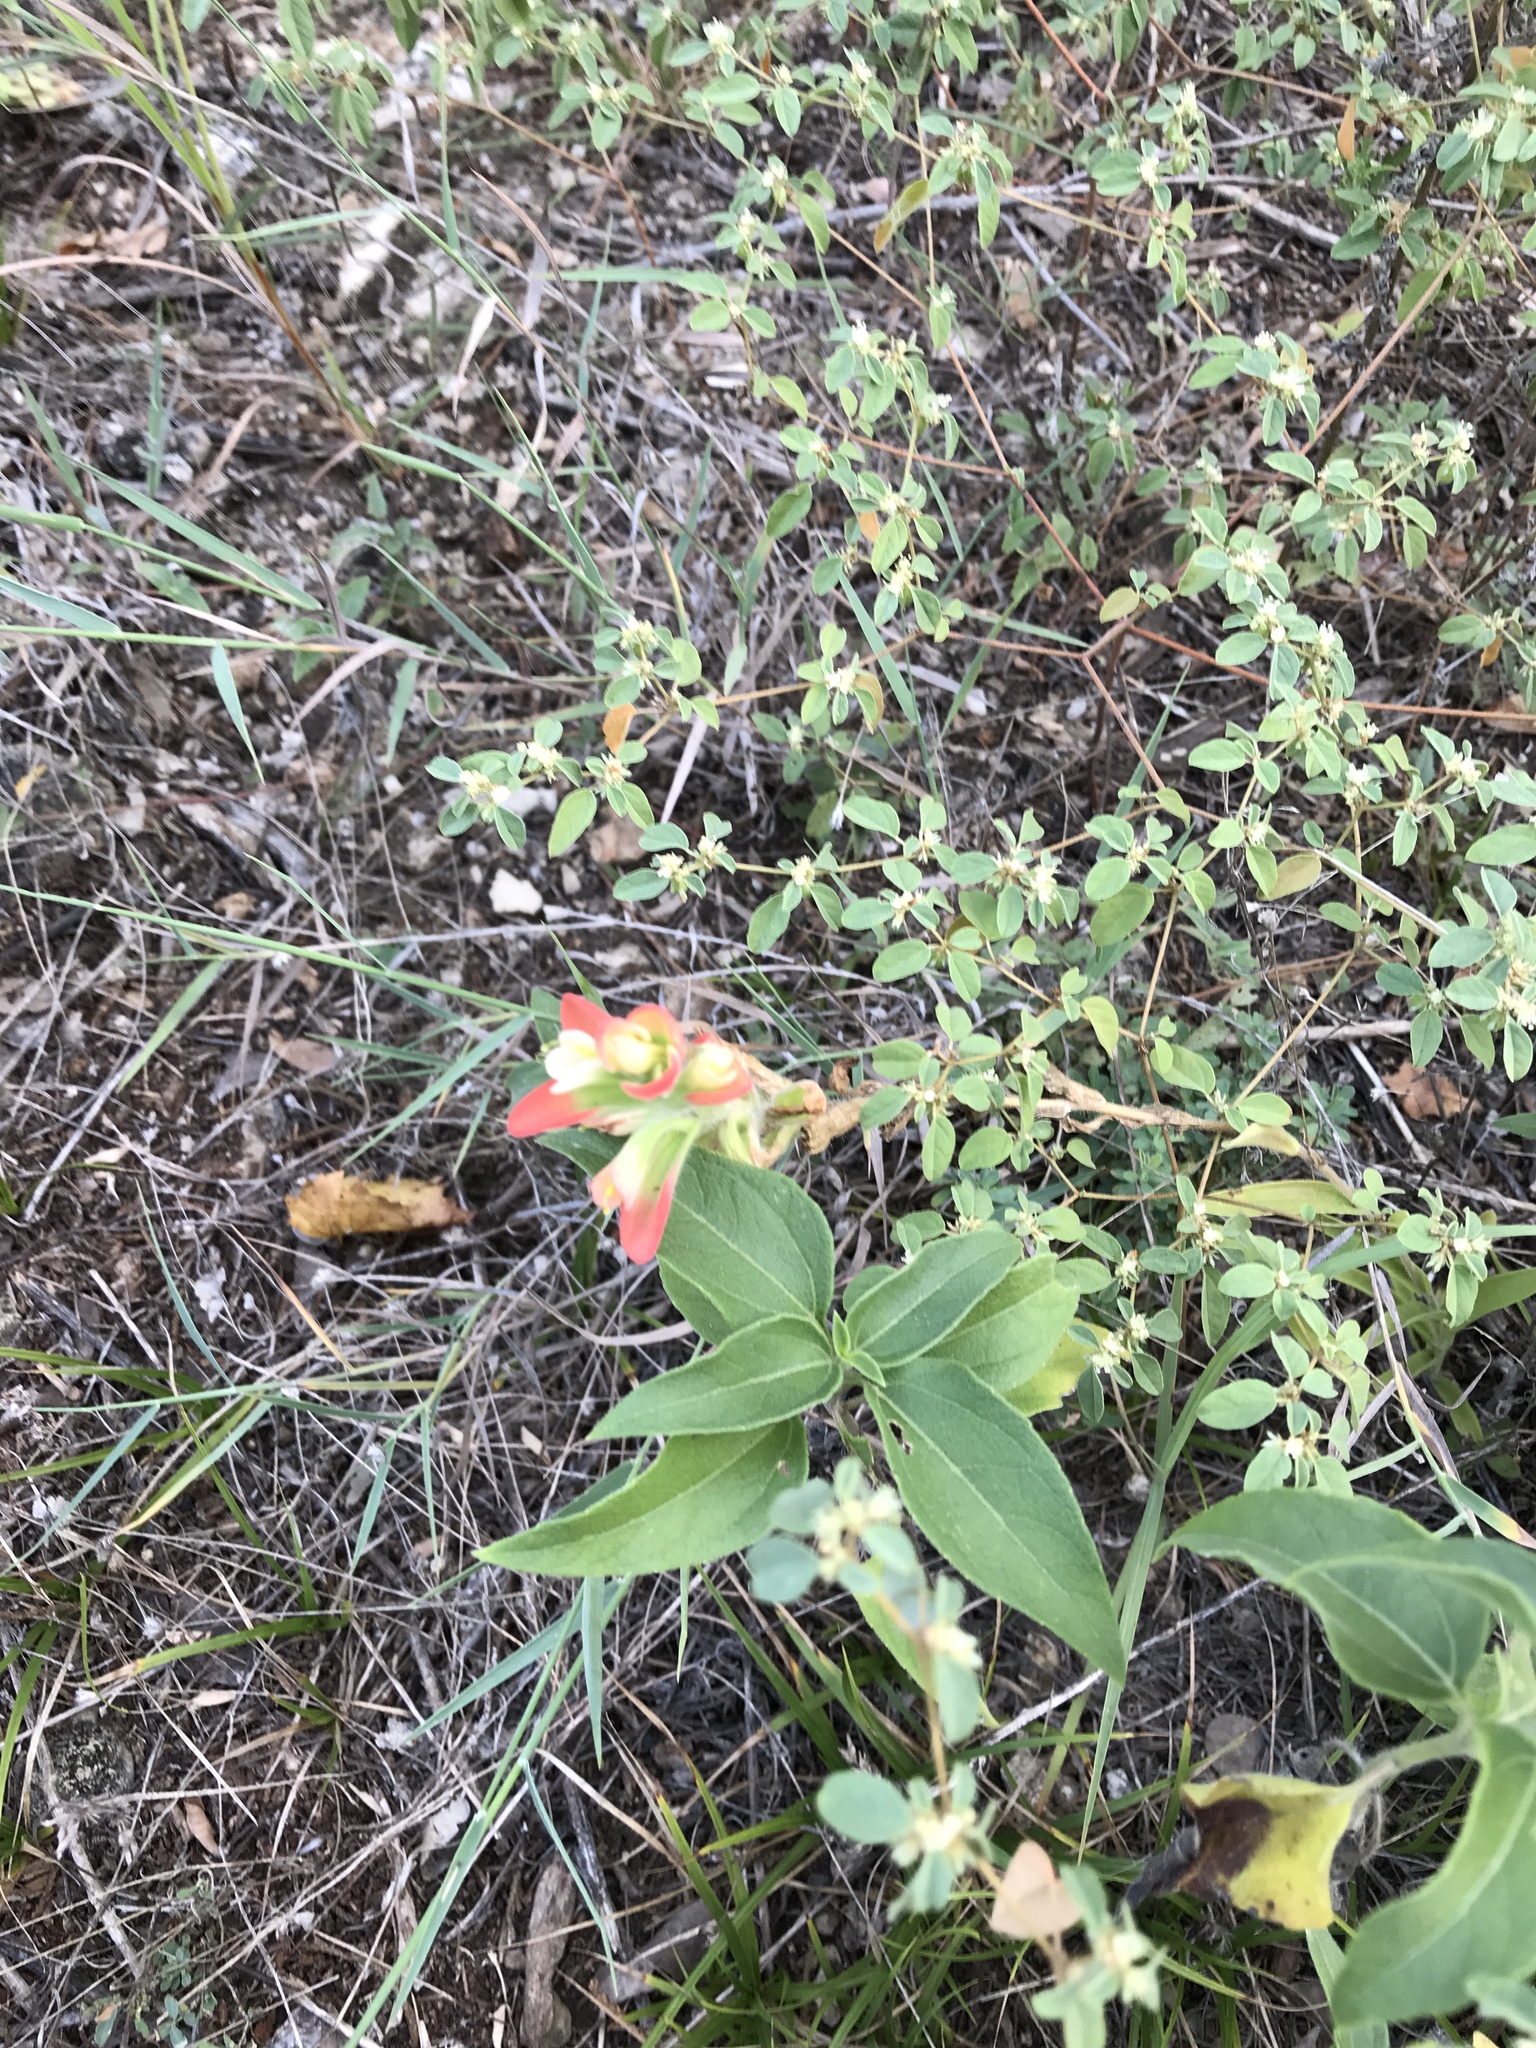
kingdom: Plantae
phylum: Tracheophyta
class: Magnoliopsida
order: Lamiales
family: Orobanchaceae
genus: Castilleja
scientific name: Castilleja indivisa
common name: Texas paintbrush
